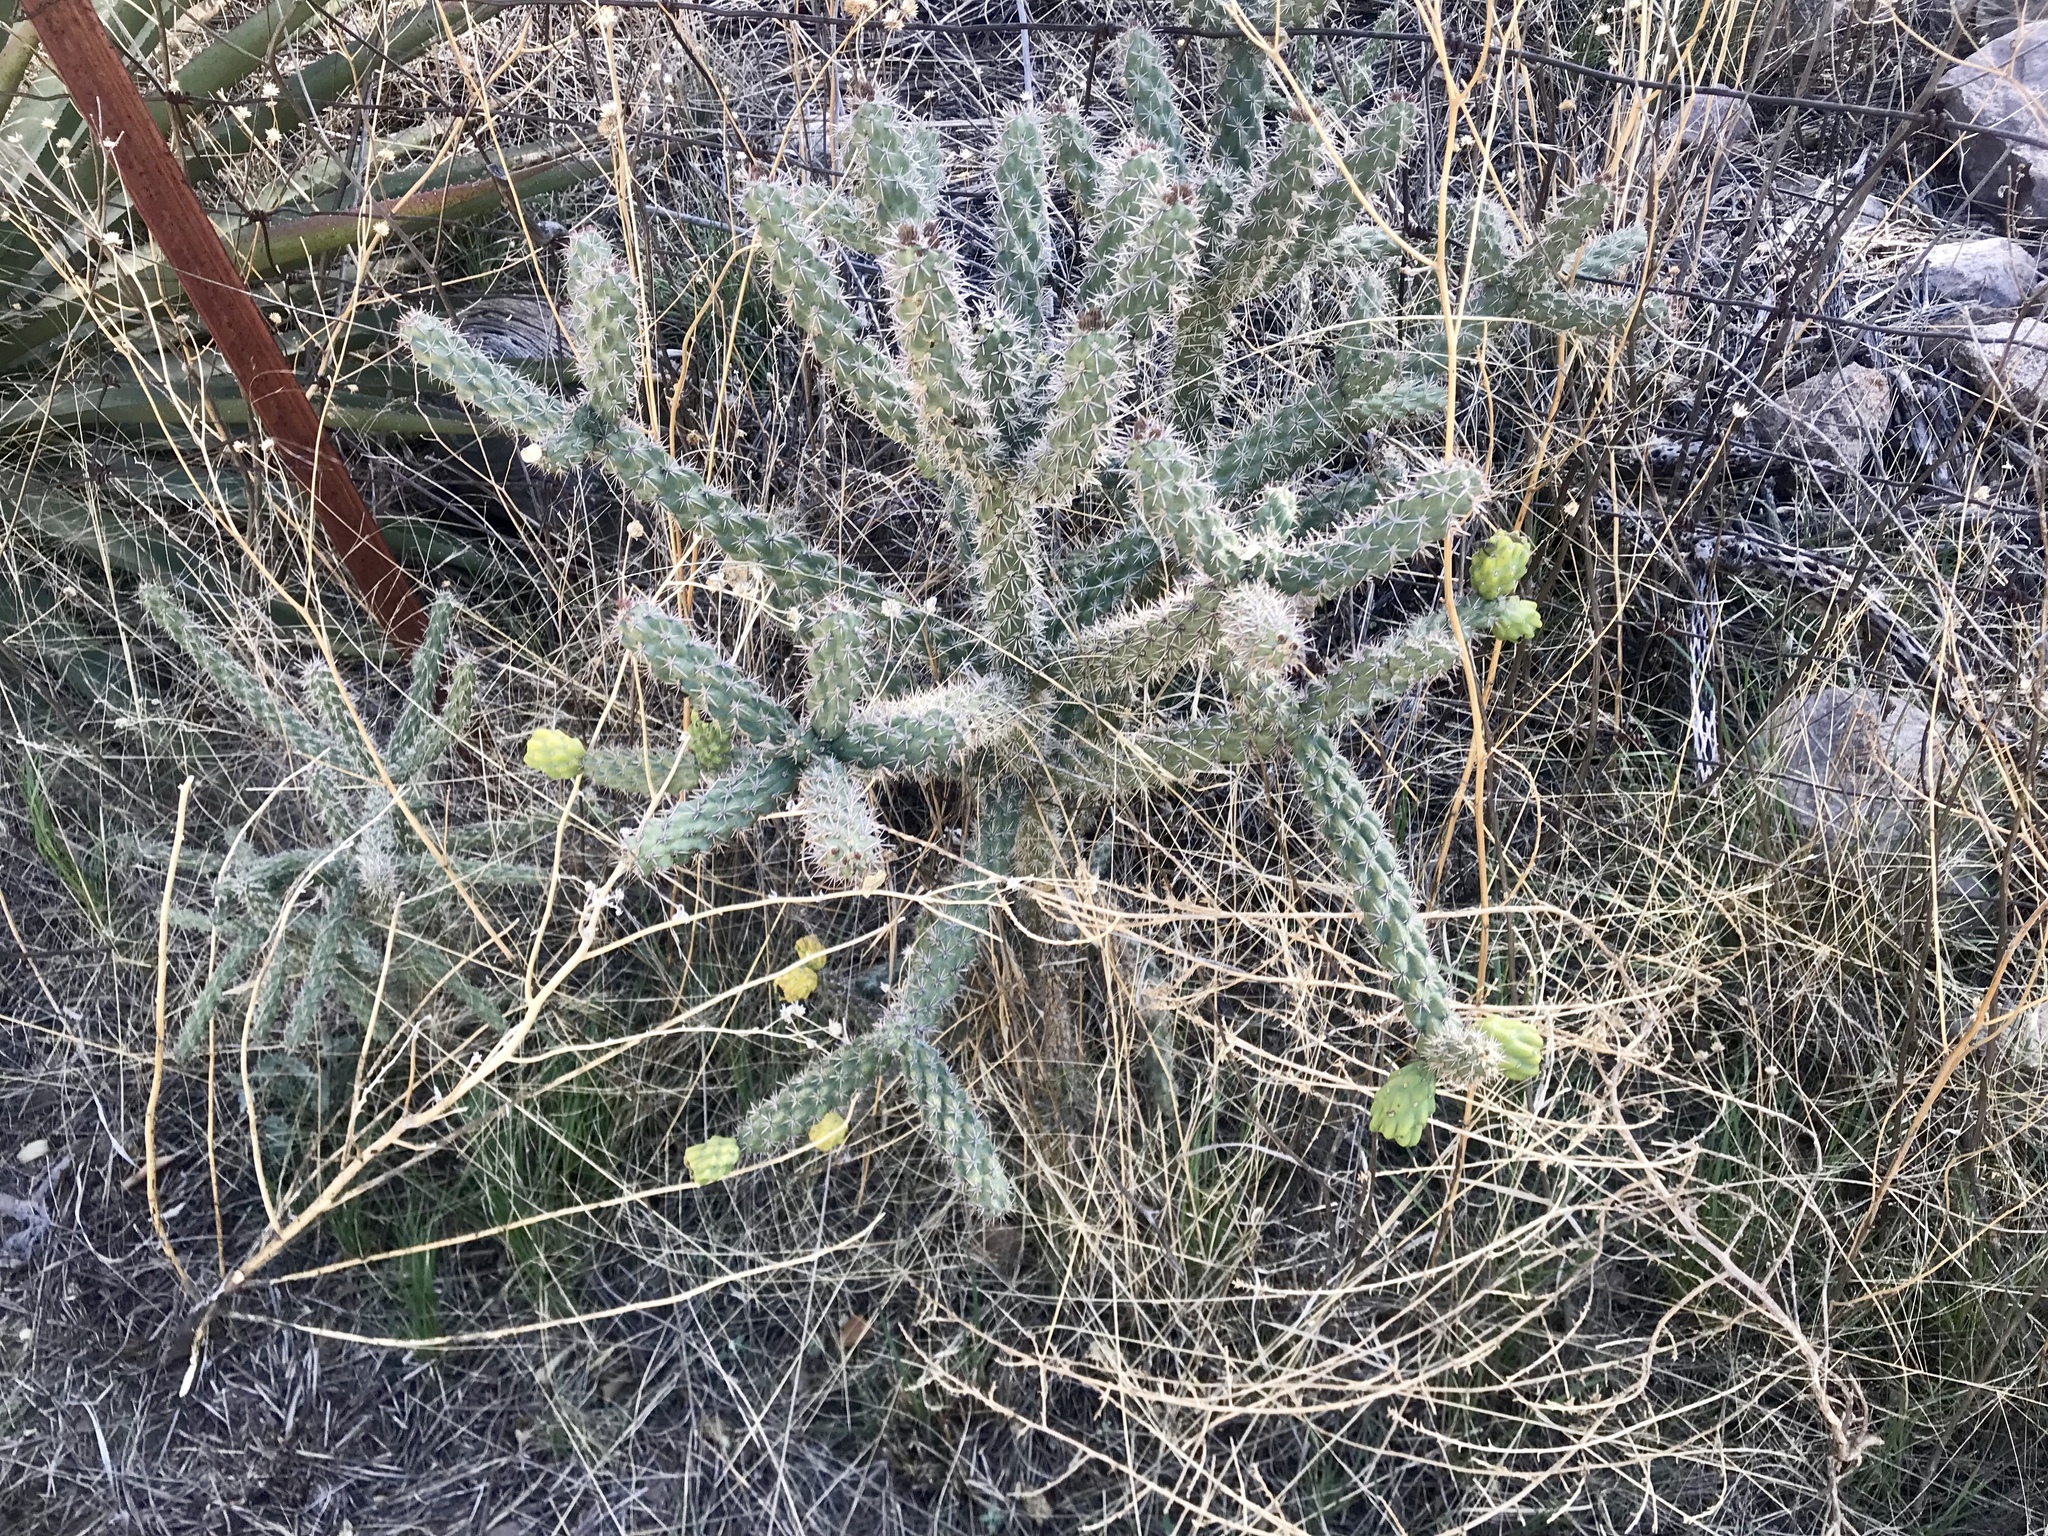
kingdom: Plantae
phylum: Tracheophyta
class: Magnoliopsida
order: Caryophyllales
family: Cactaceae
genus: Cylindropuntia
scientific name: Cylindropuntia imbricata
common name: Candelabrum cactus
